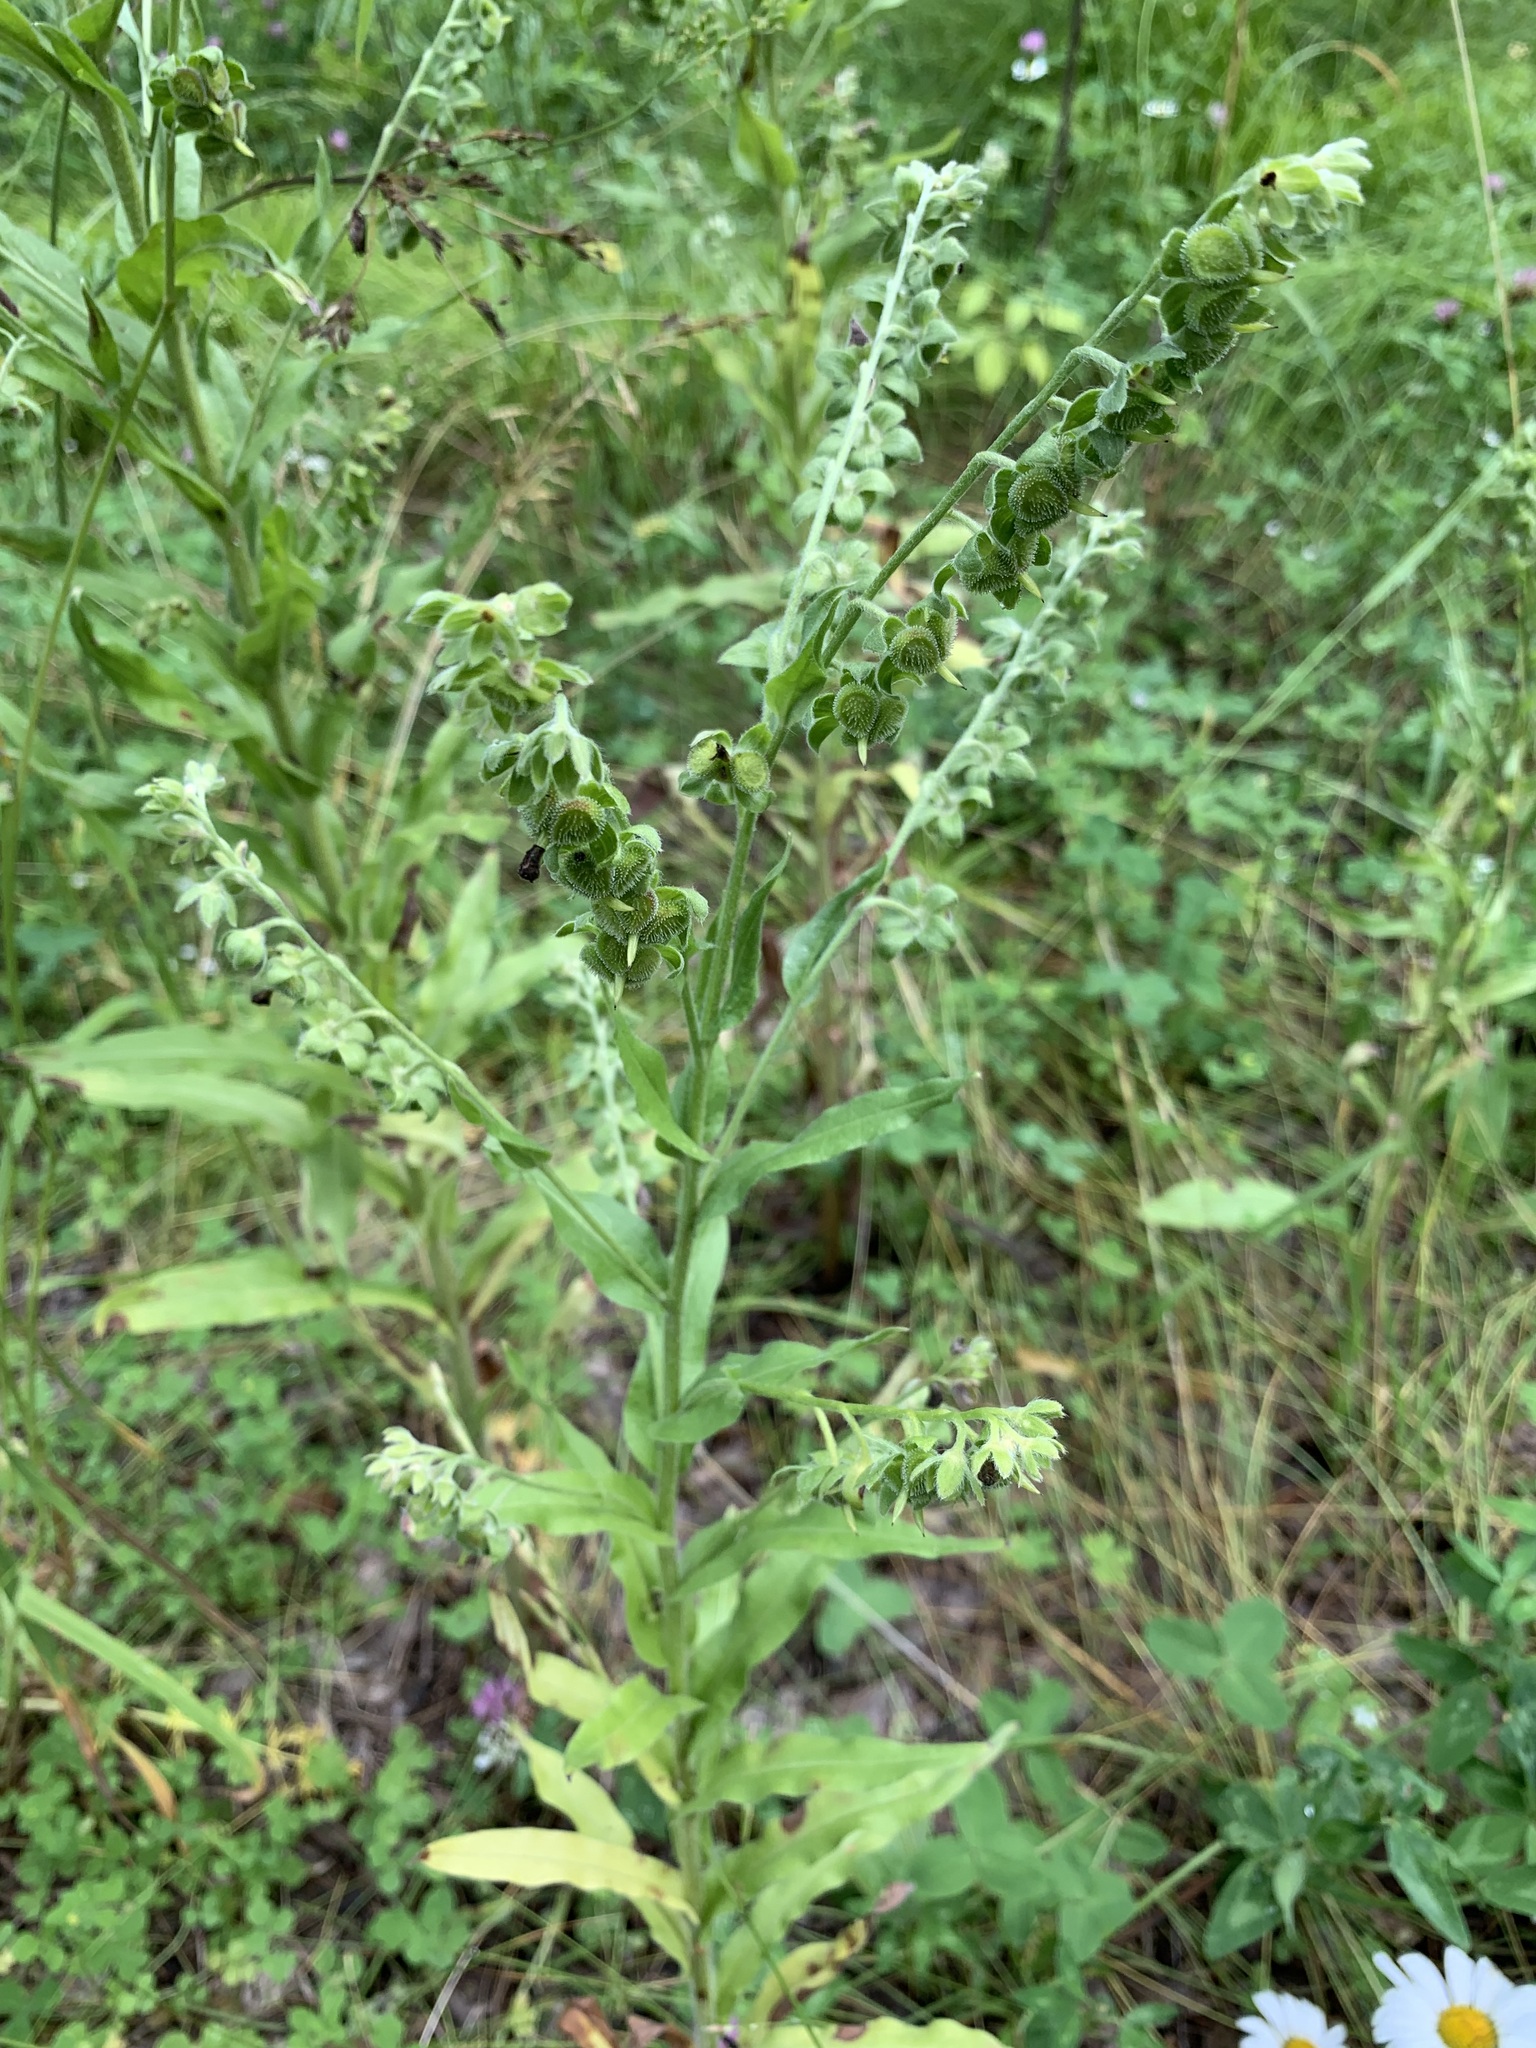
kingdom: Plantae
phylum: Tracheophyta
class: Magnoliopsida
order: Boraginales
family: Boraginaceae
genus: Cynoglossum
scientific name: Cynoglossum officinale
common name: Hound's-tongue
